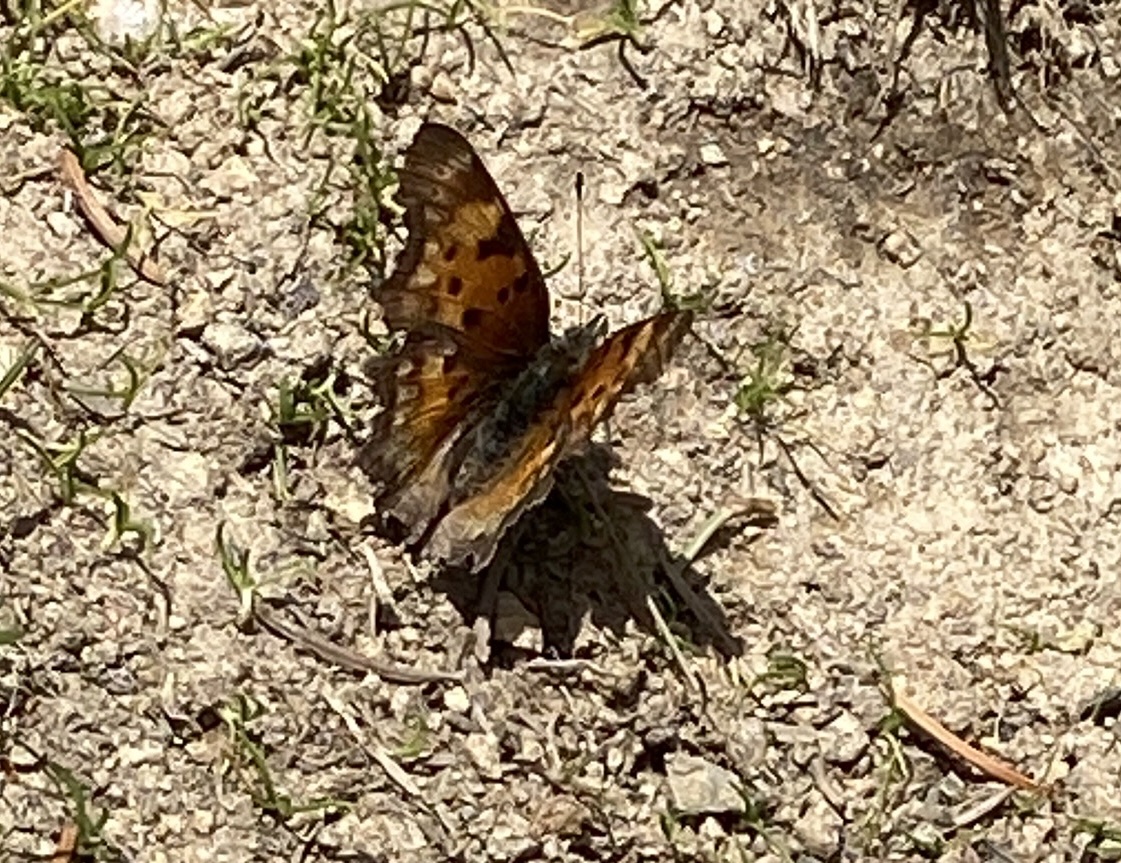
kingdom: Animalia
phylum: Arthropoda
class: Insecta
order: Lepidoptera
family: Nymphalidae
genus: Polygonia
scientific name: Polygonia gracilis
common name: Hoary comma
